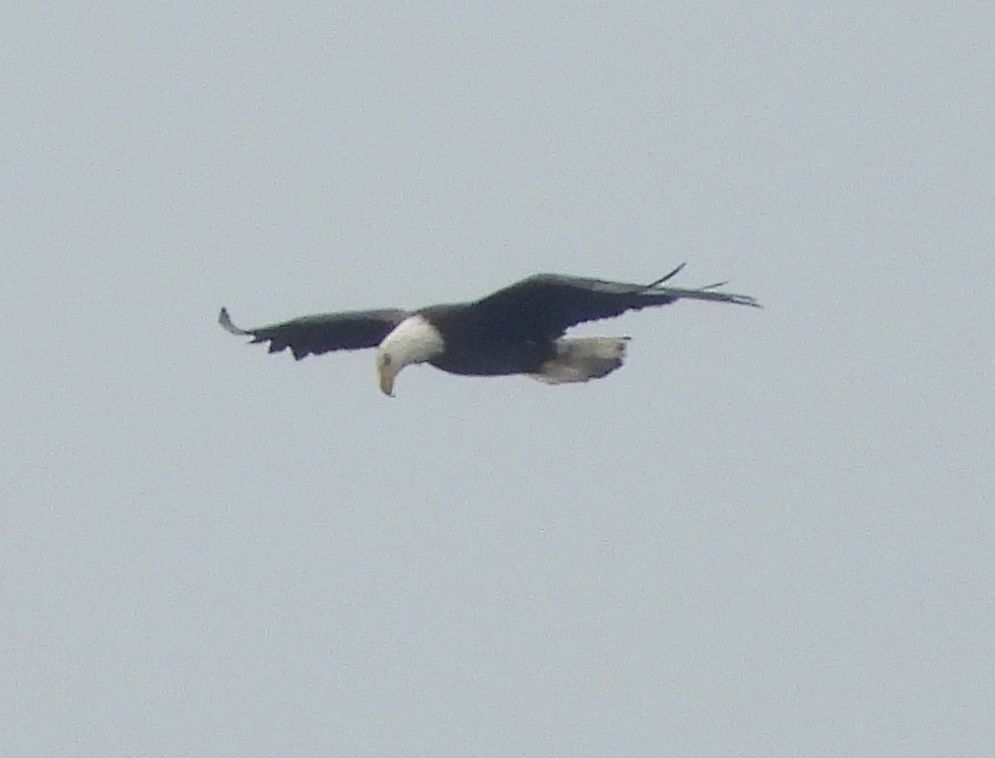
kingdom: Animalia
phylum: Chordata
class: Aves
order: Accipitriformes
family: Accipitridae
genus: Haliaeetus
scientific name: Haliaeetus leucocephalus
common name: Bald eagle
